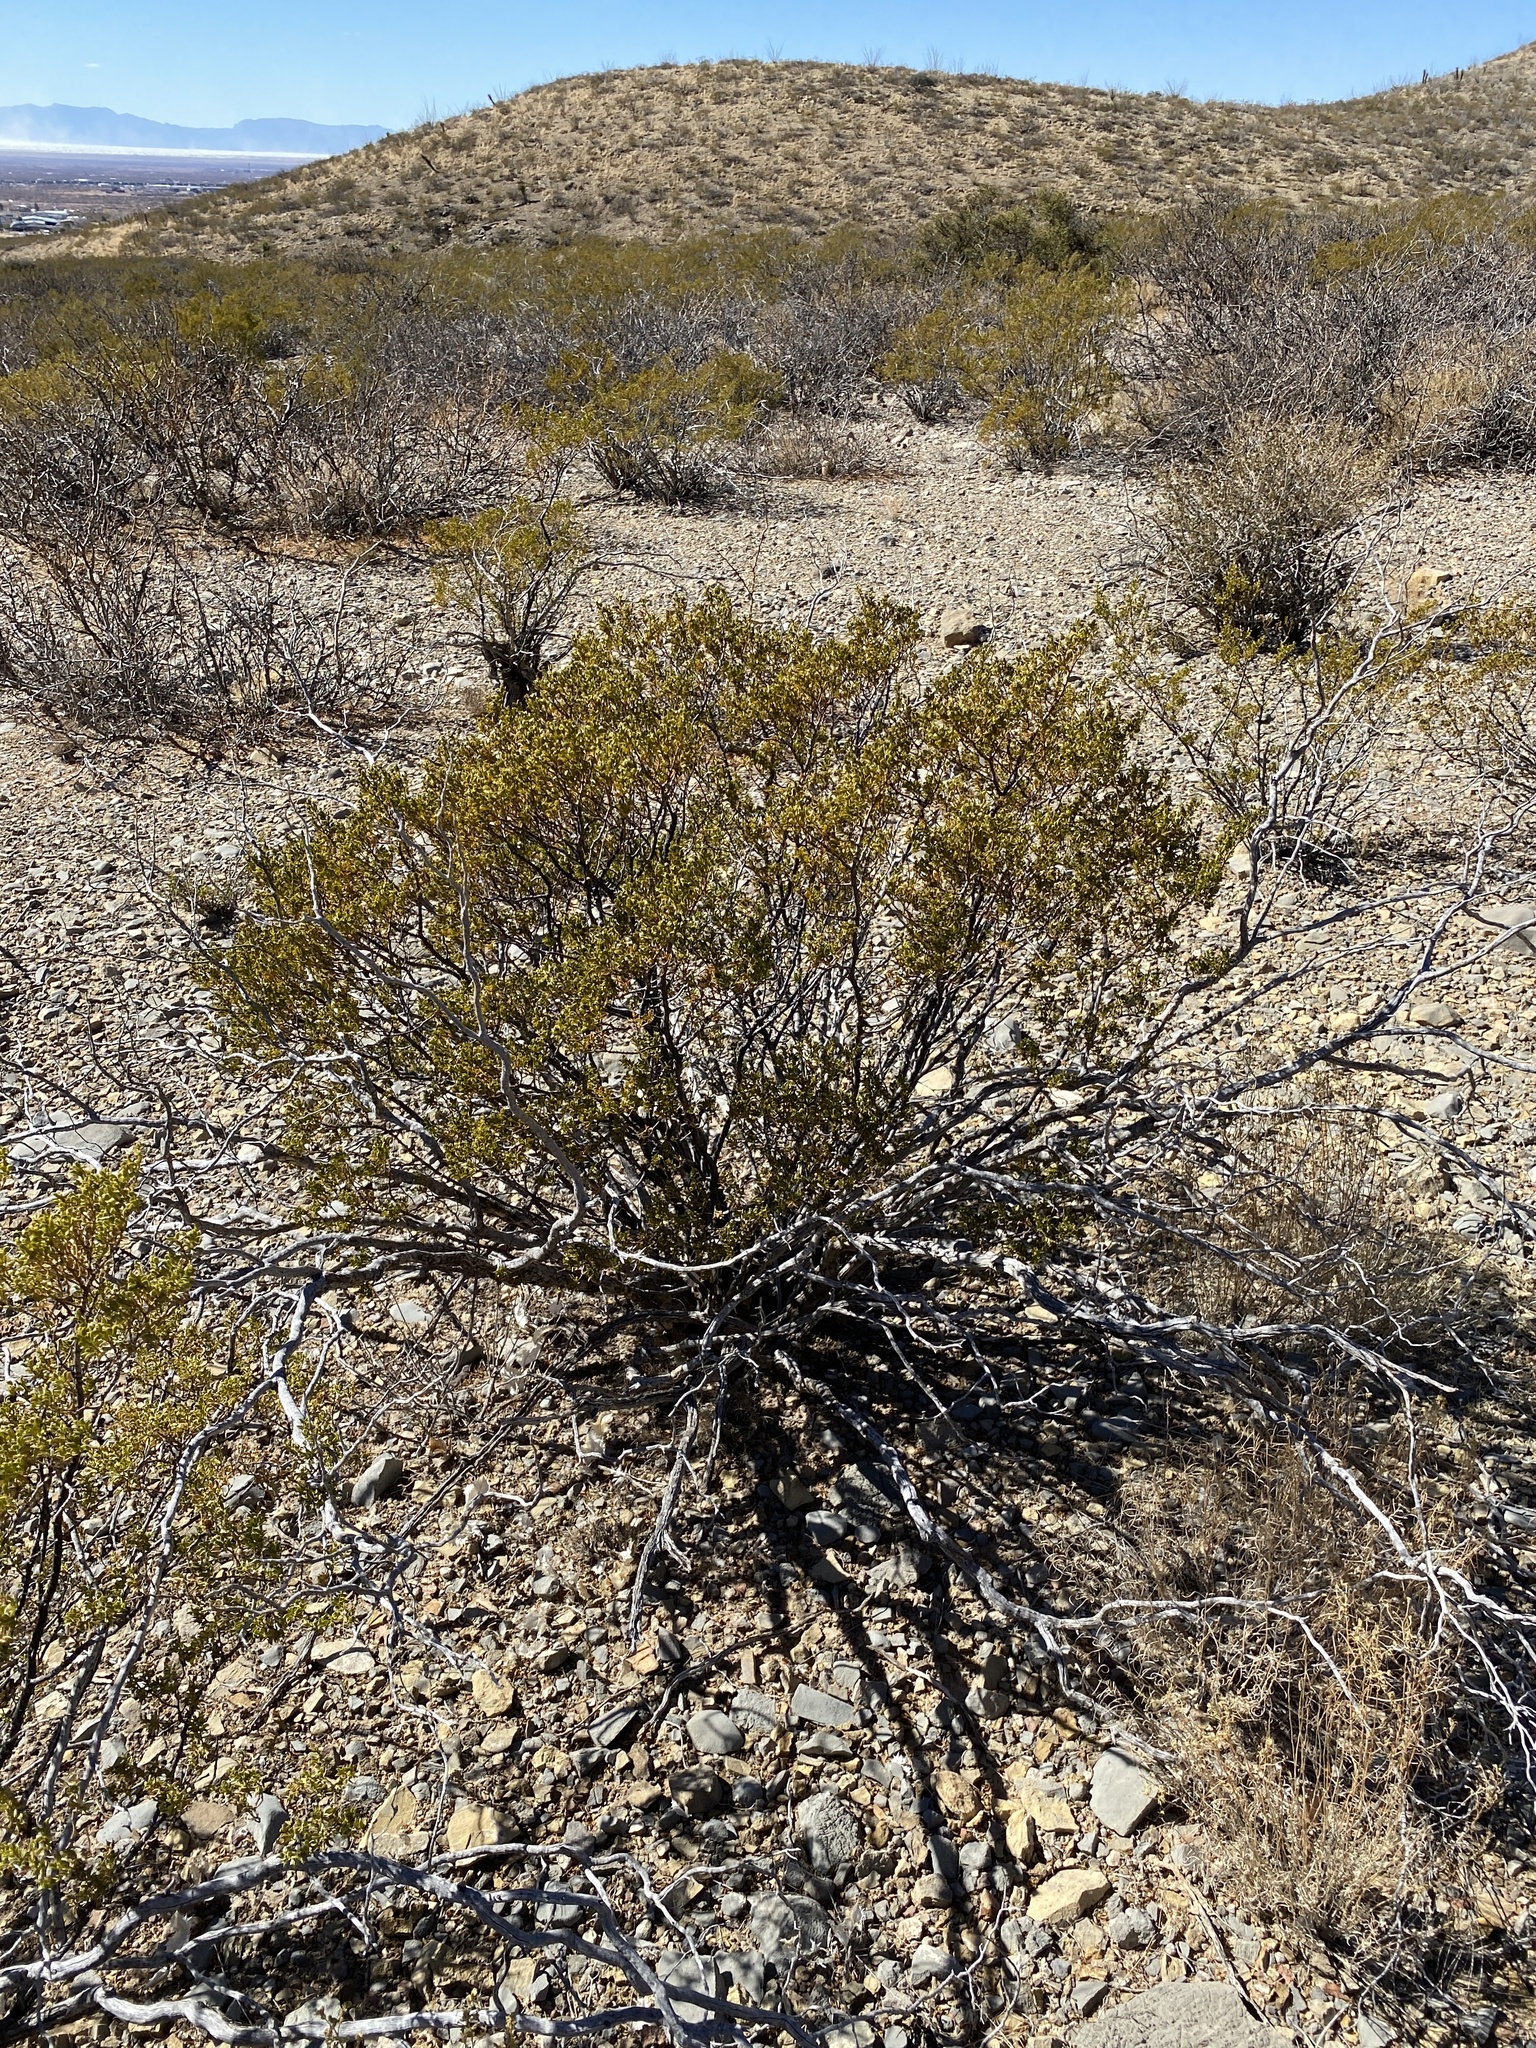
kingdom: Plantae
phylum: Tracheophyta
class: Magnoliopsida
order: Zygophyllales
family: Zygophyllaceae
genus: Larrea
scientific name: Larrea tridentata
